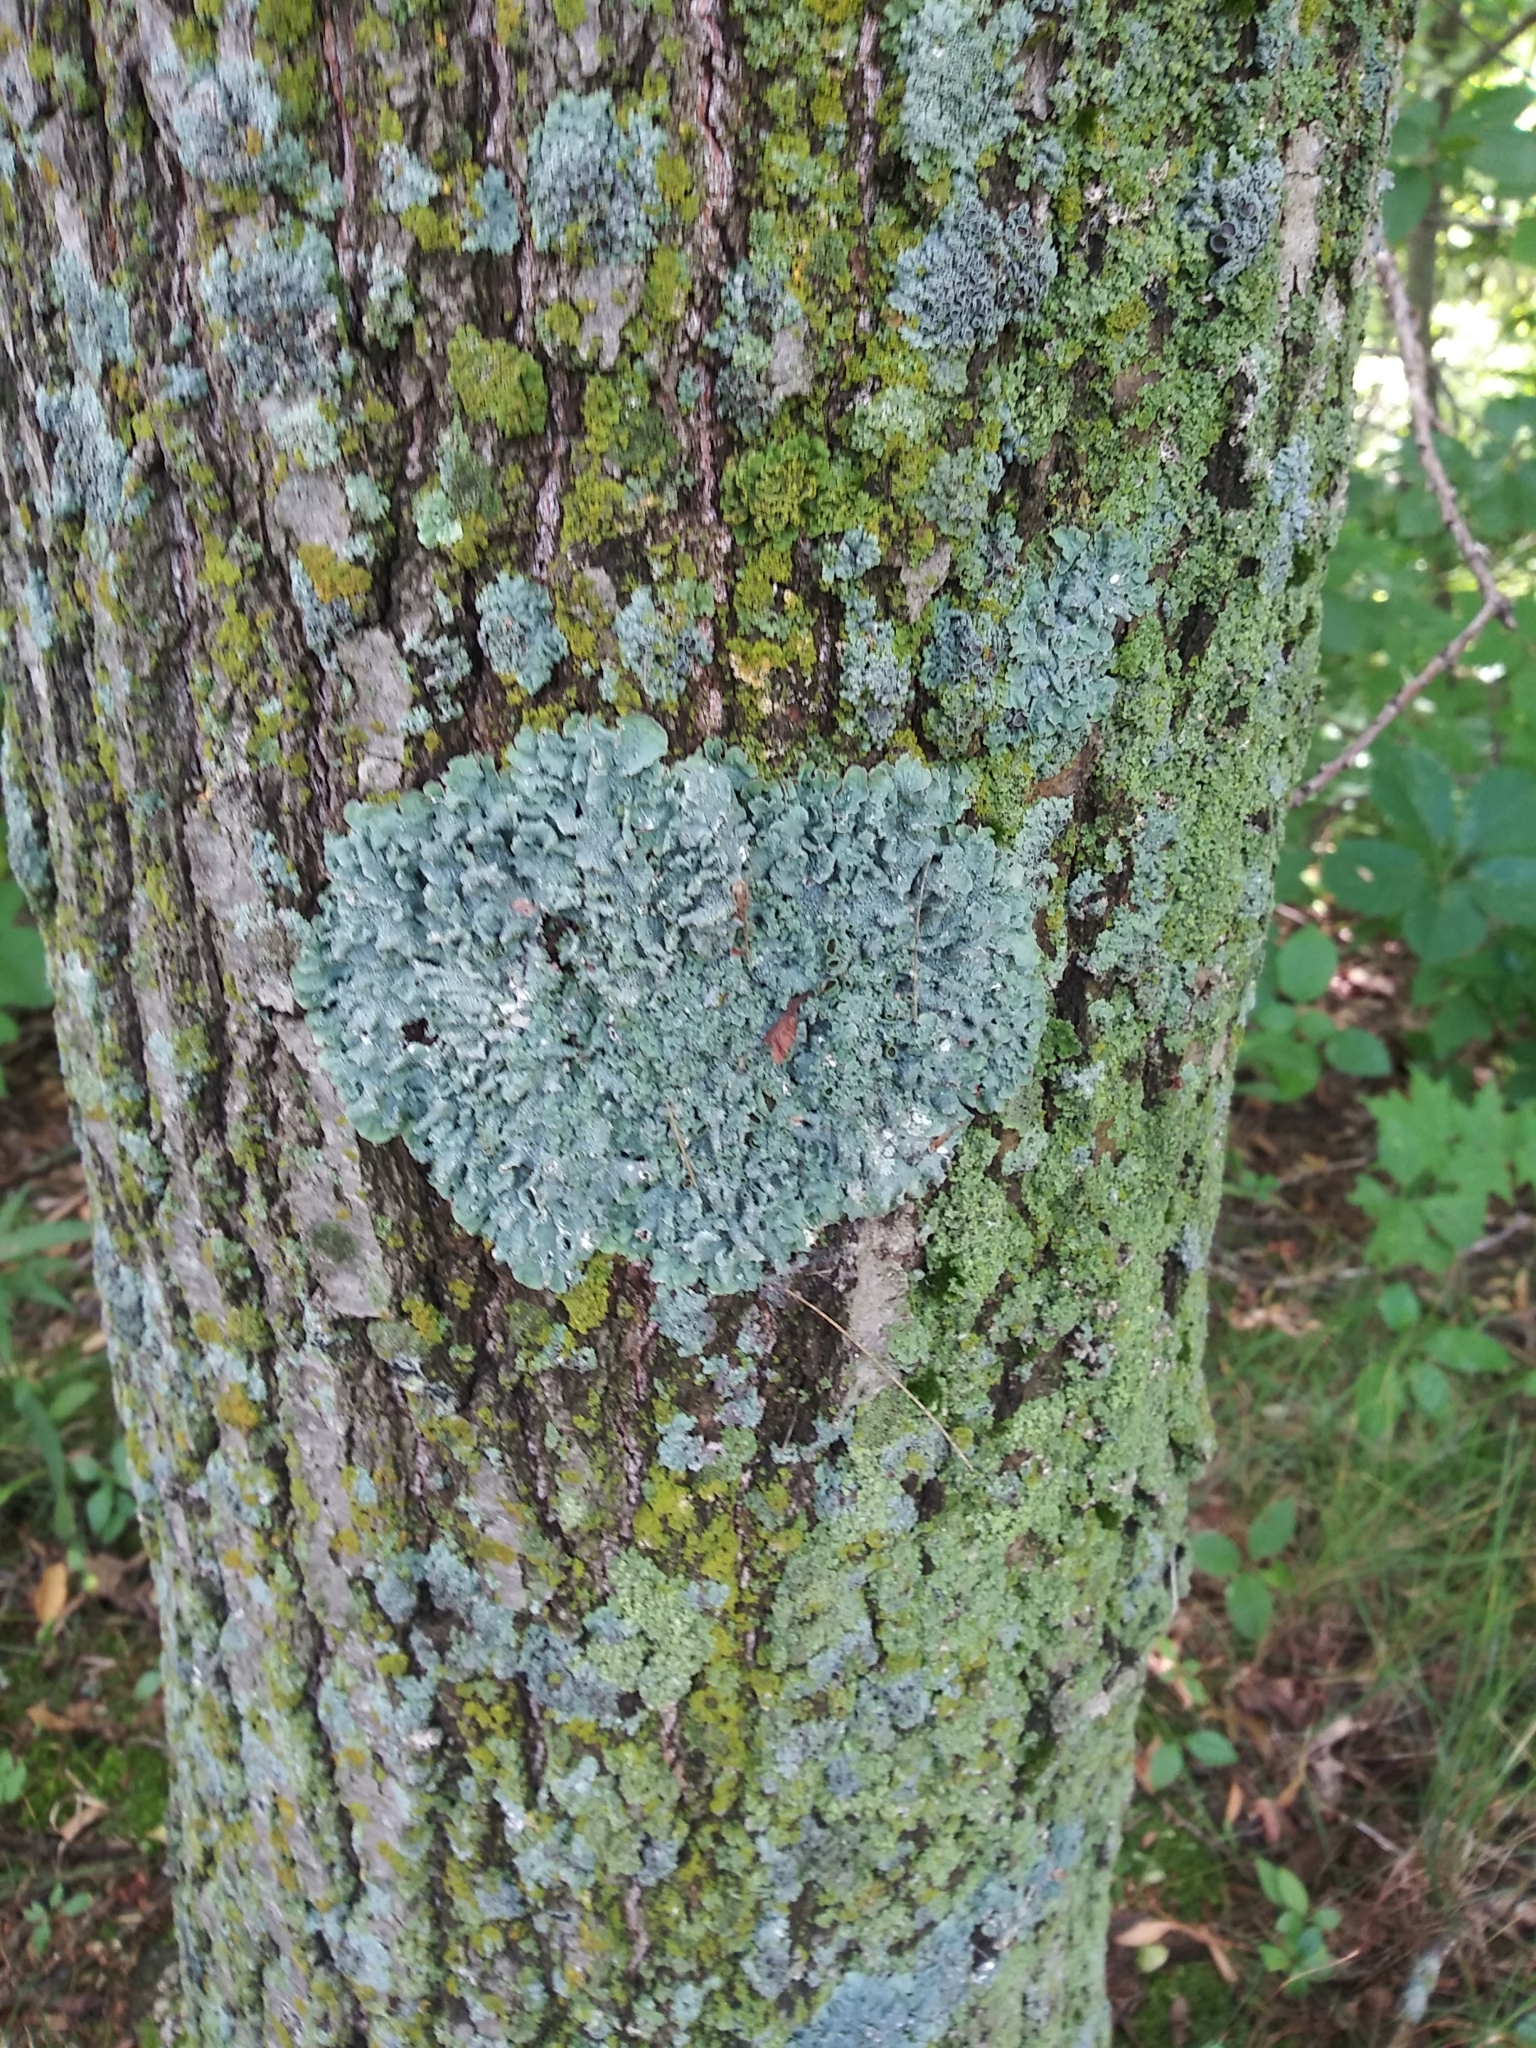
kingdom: Fungi
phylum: Ascomycota
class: Lecanoromycetes
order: Lecanorales
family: Parmeliaceae
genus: Punctelia
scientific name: Punctelia bolliana
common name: Eastern speckled shield lichen
